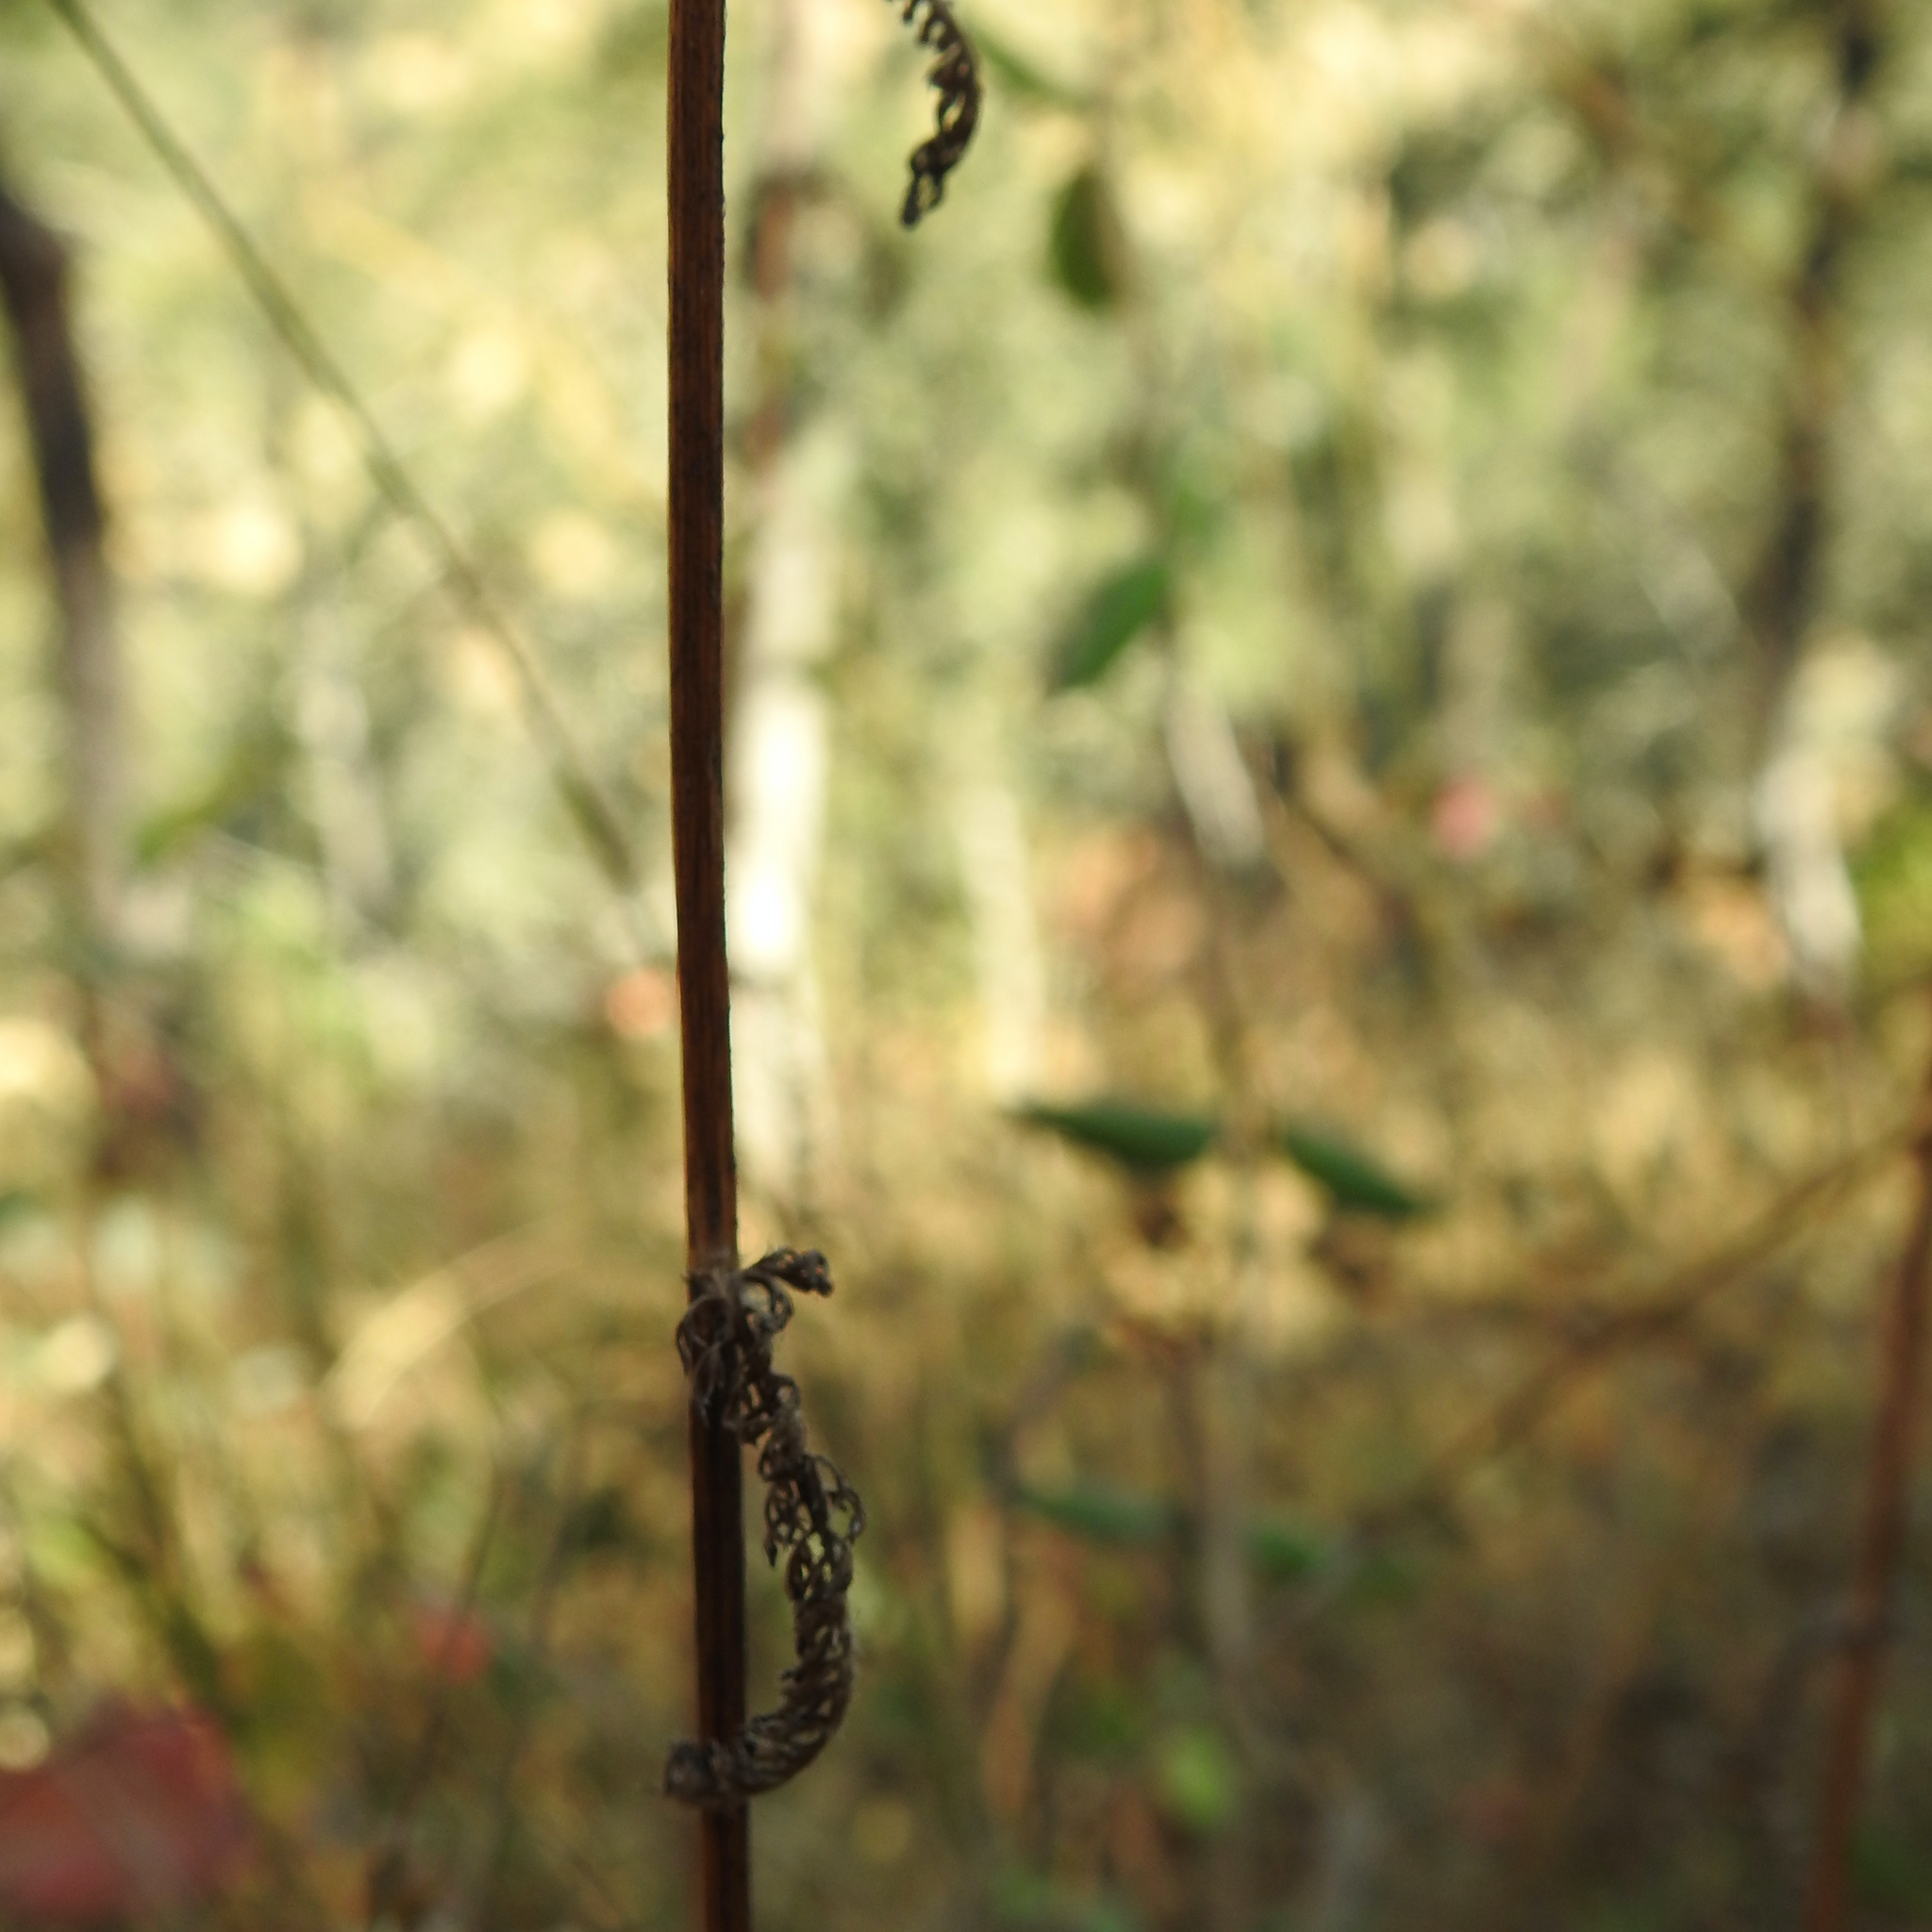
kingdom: Plantae
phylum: Tracheophyta
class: Magnoliopsida
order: Asterales
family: Asteraceae
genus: Achillea
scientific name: Achillea millefolium
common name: Yarrow
